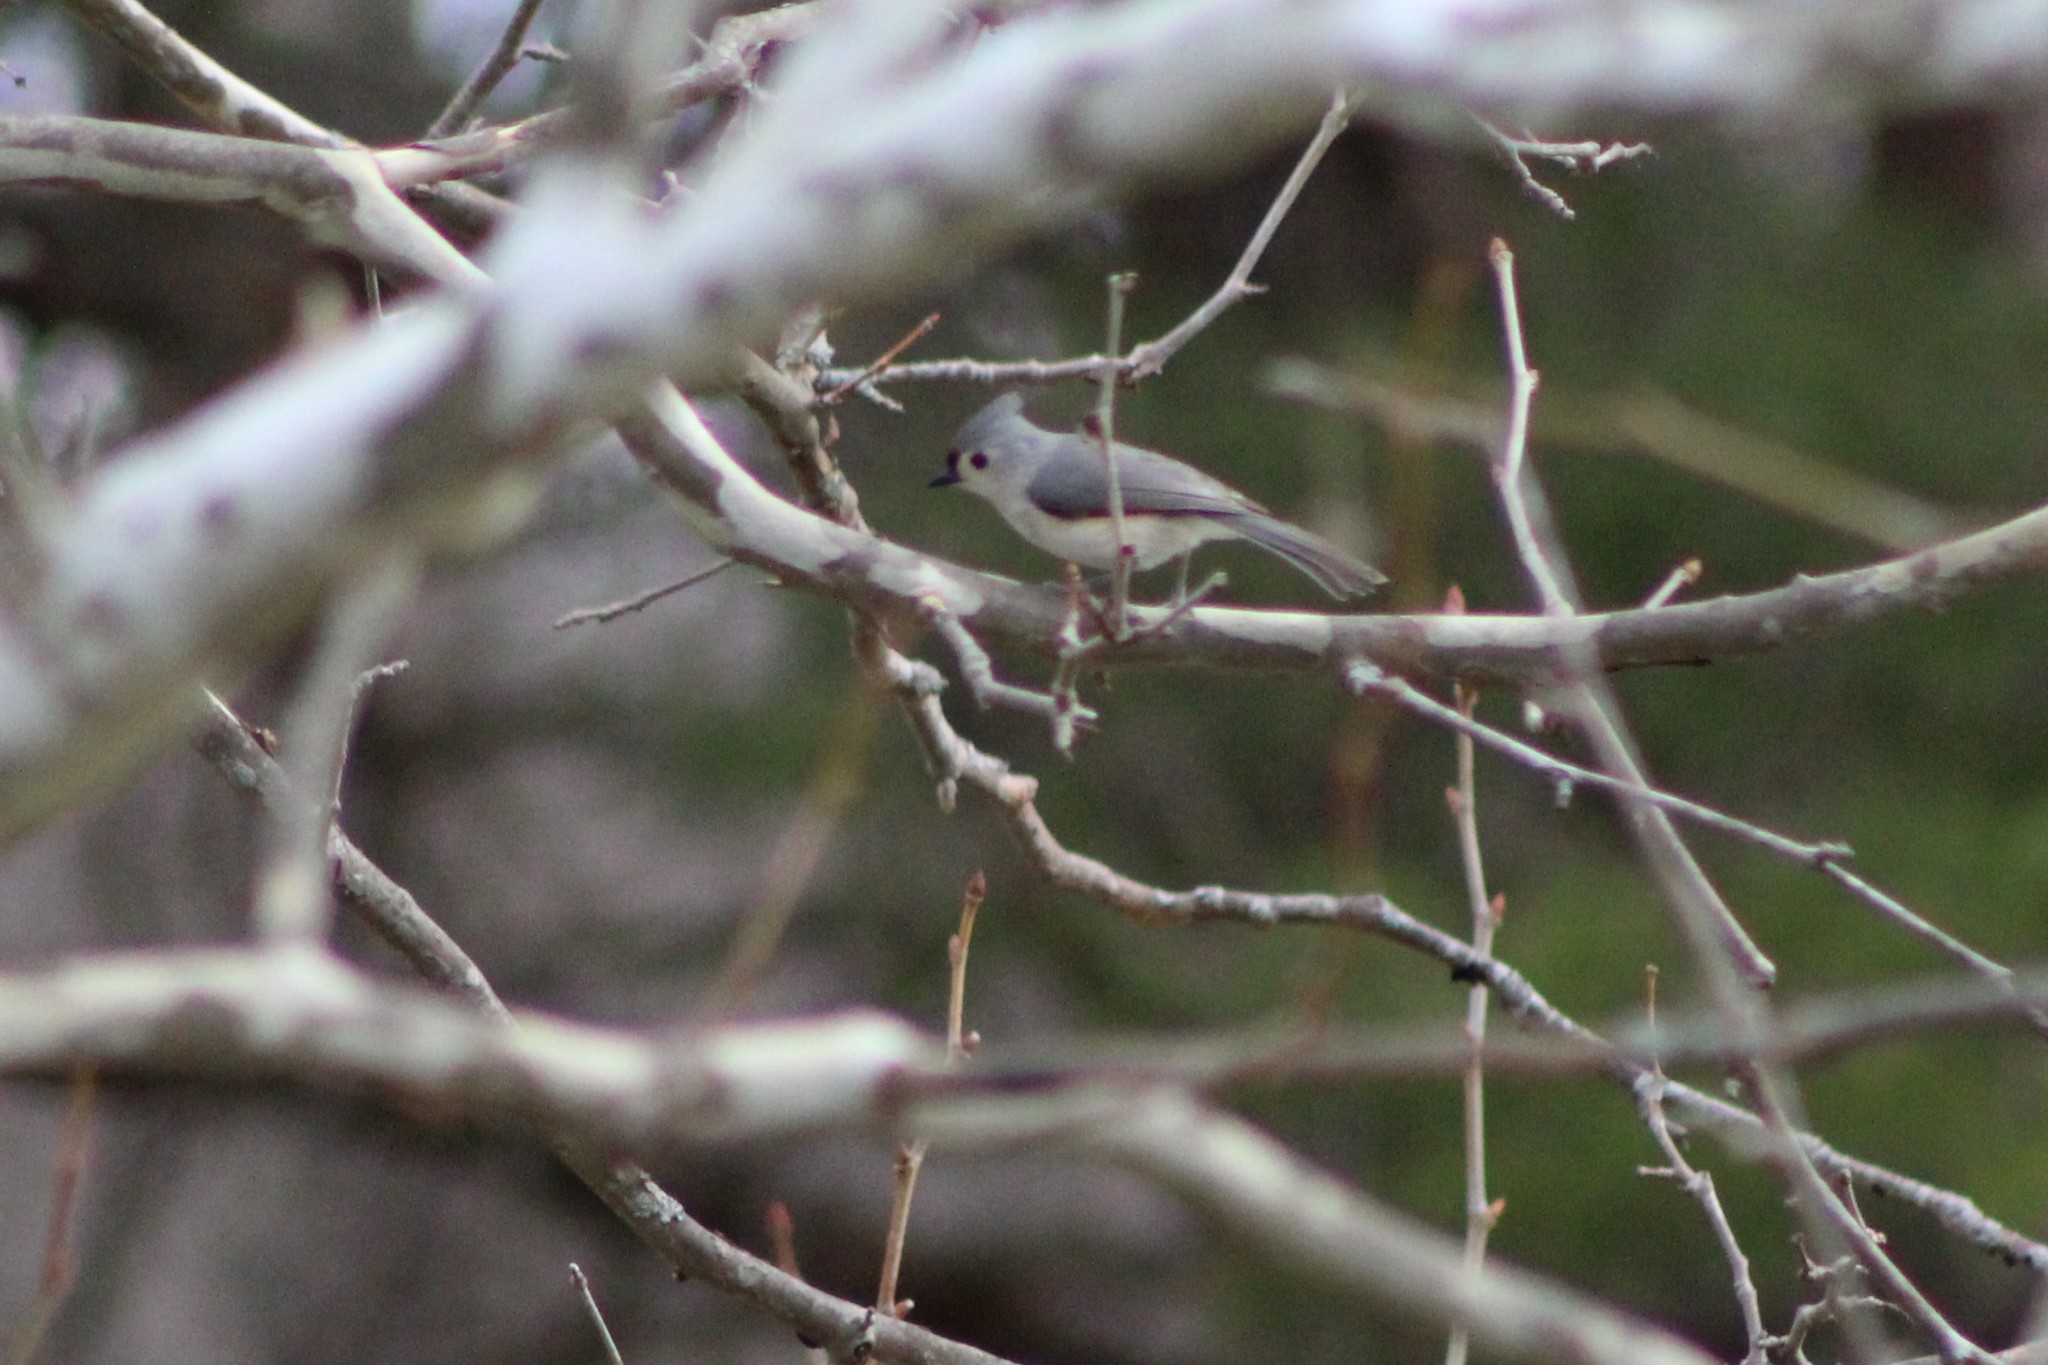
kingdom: Animalia
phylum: Chordata
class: Aves
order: Passeriformes
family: Paridae
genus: Baeolophus
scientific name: Baeolophus bicolor
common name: Tufted titmouse
